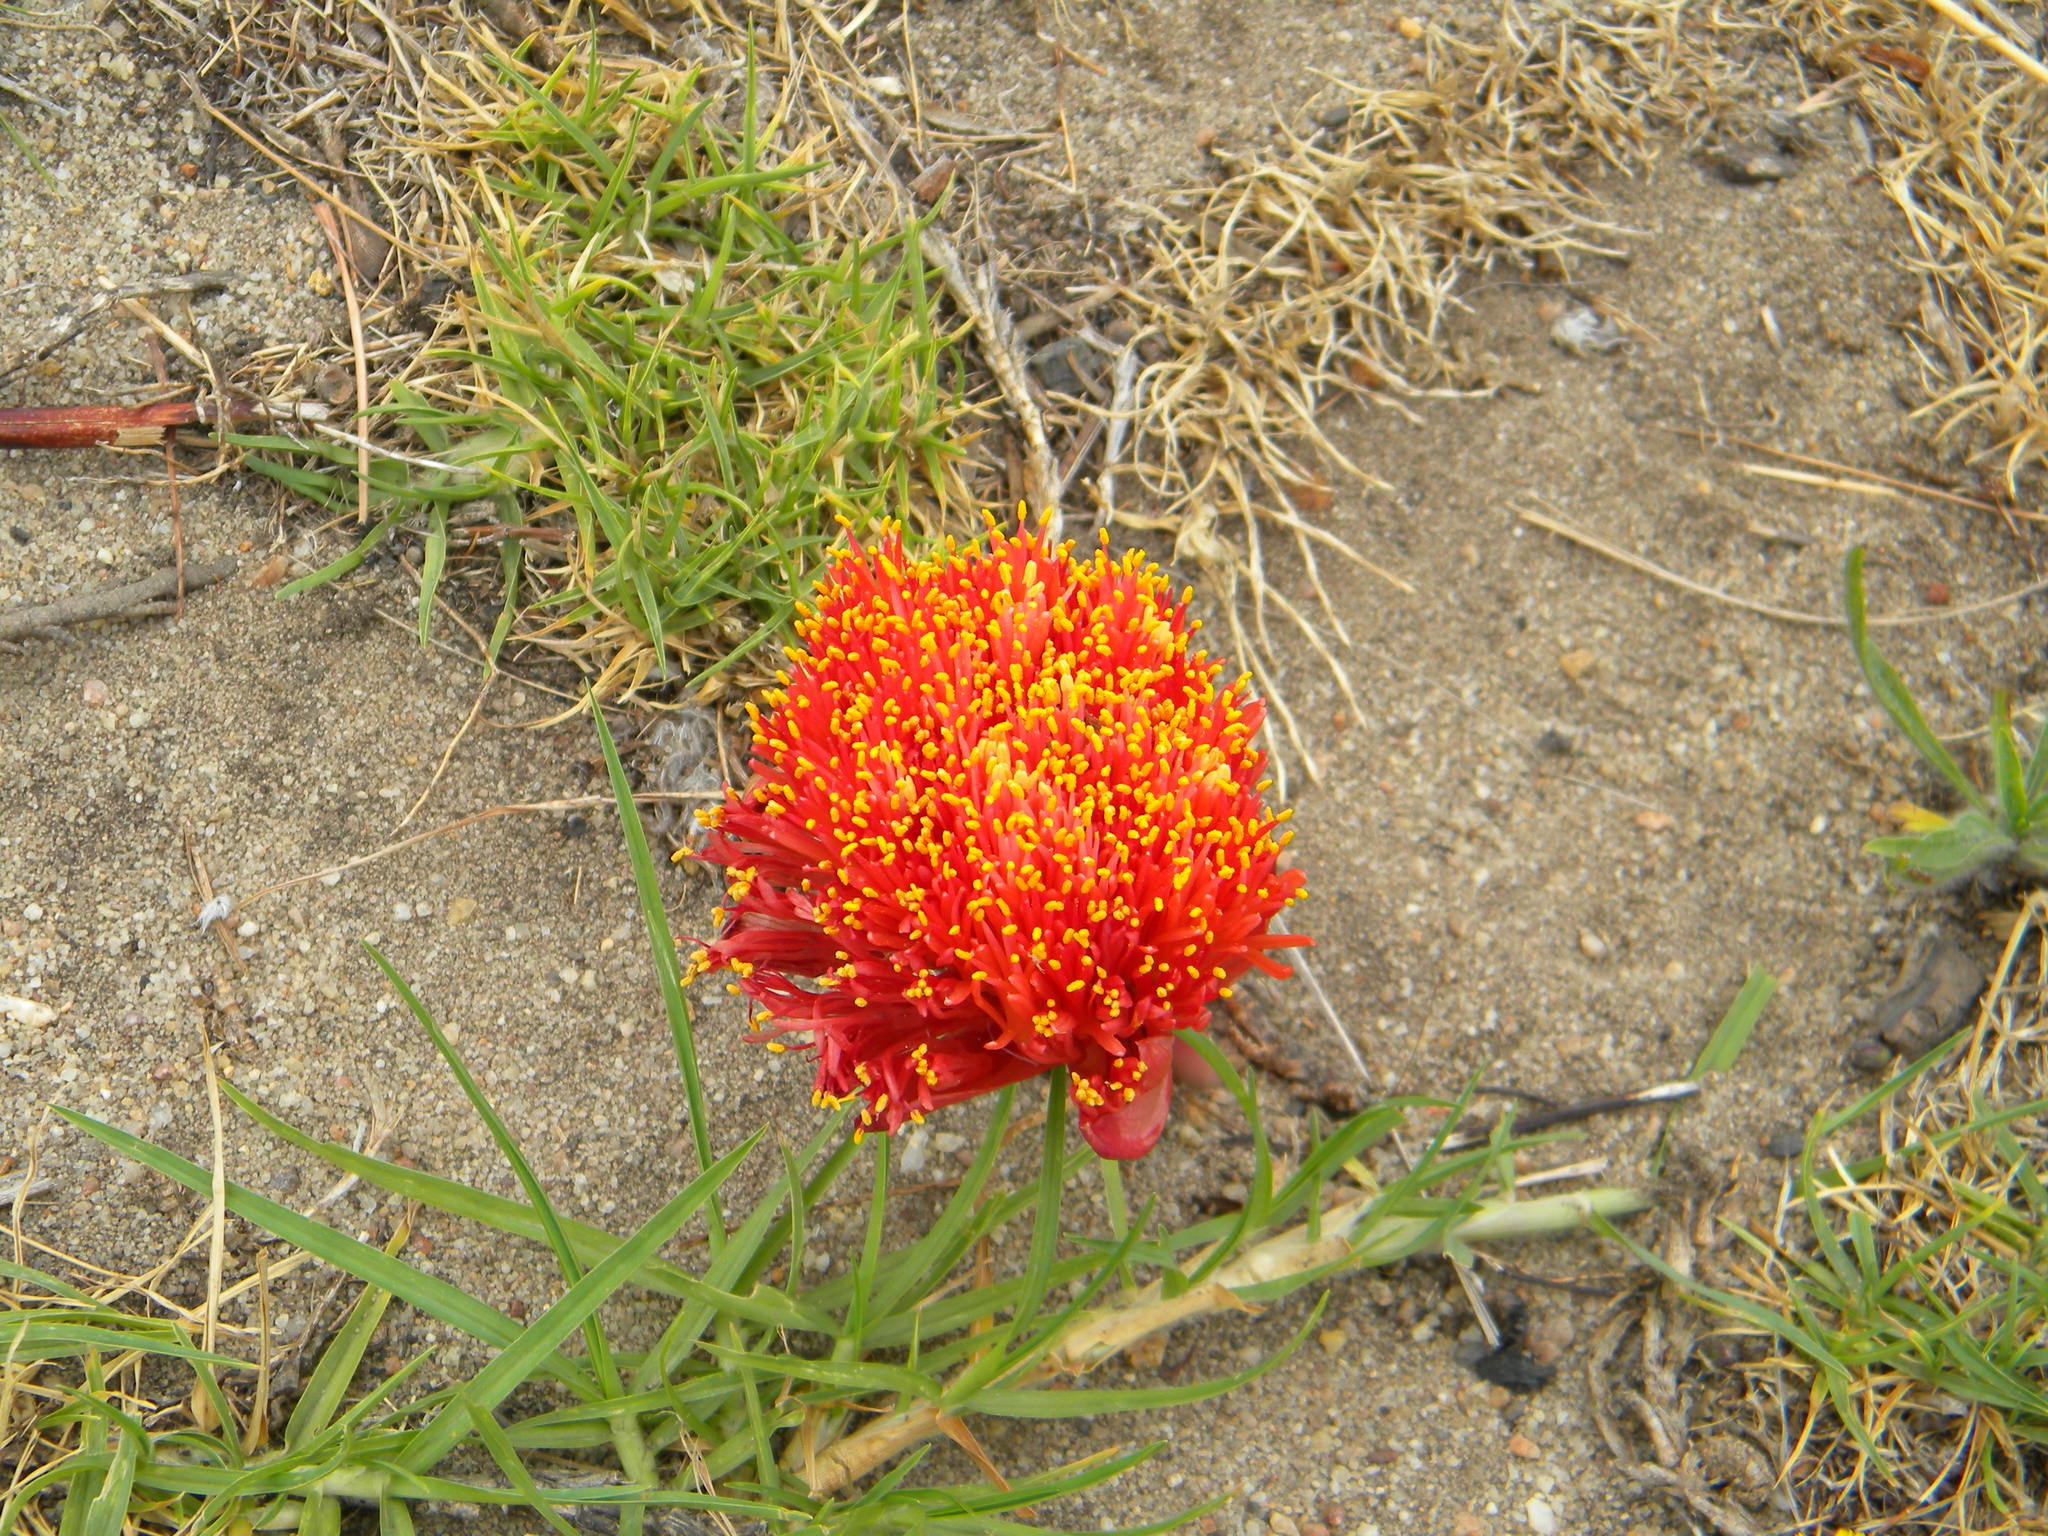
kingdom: Plantae
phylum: Tracheophyta
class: Liliopsida
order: Asparagales
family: Amaryllidaceae
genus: Haemanthus
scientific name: Haemanthus sanguineus
